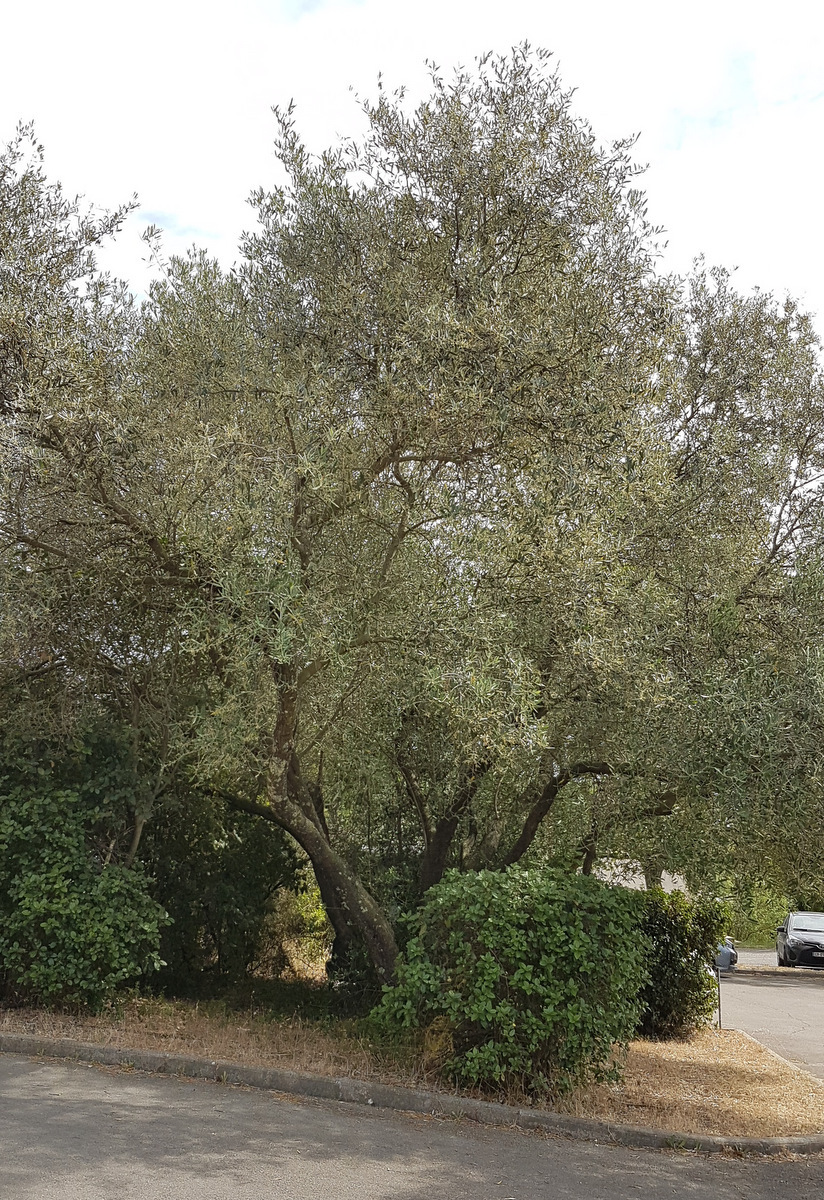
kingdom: Plantae
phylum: Tracheophyta
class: Magnoliopsida
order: Lamiales
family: Oleaceae
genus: Olea
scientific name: Olea europaea
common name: Olive
